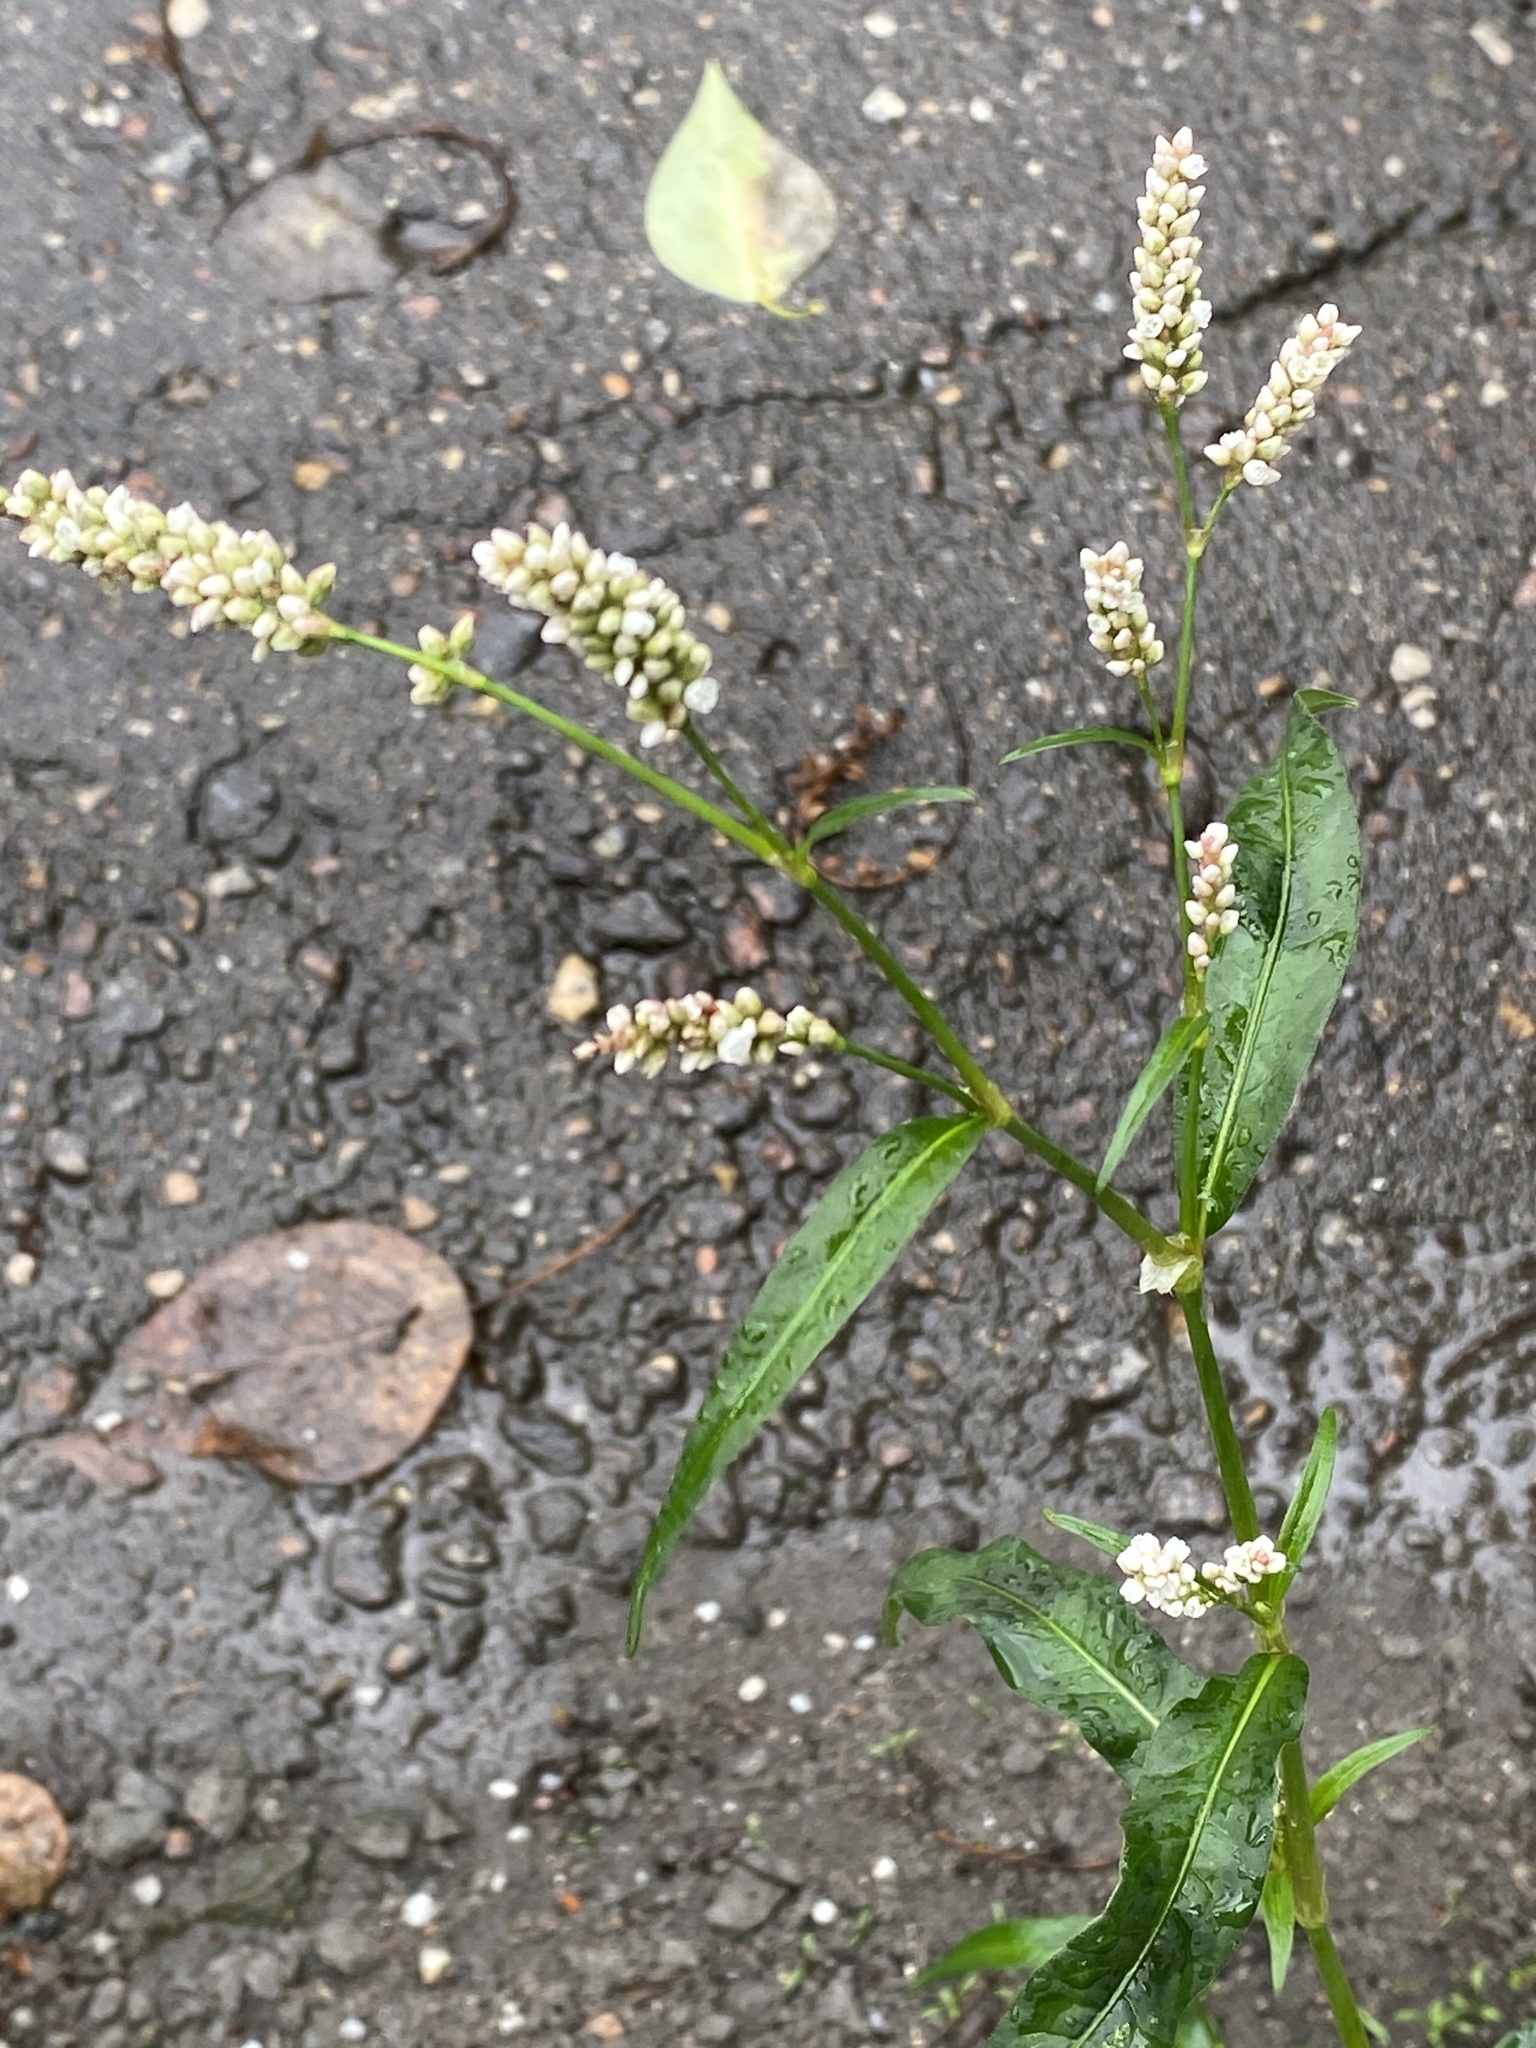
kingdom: Plantae
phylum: Tracheophyta
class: Magnoliopsida
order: Caryophyllales
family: Polygonaceae
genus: Persicaria
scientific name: Persicaria maculosa
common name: Redshank
